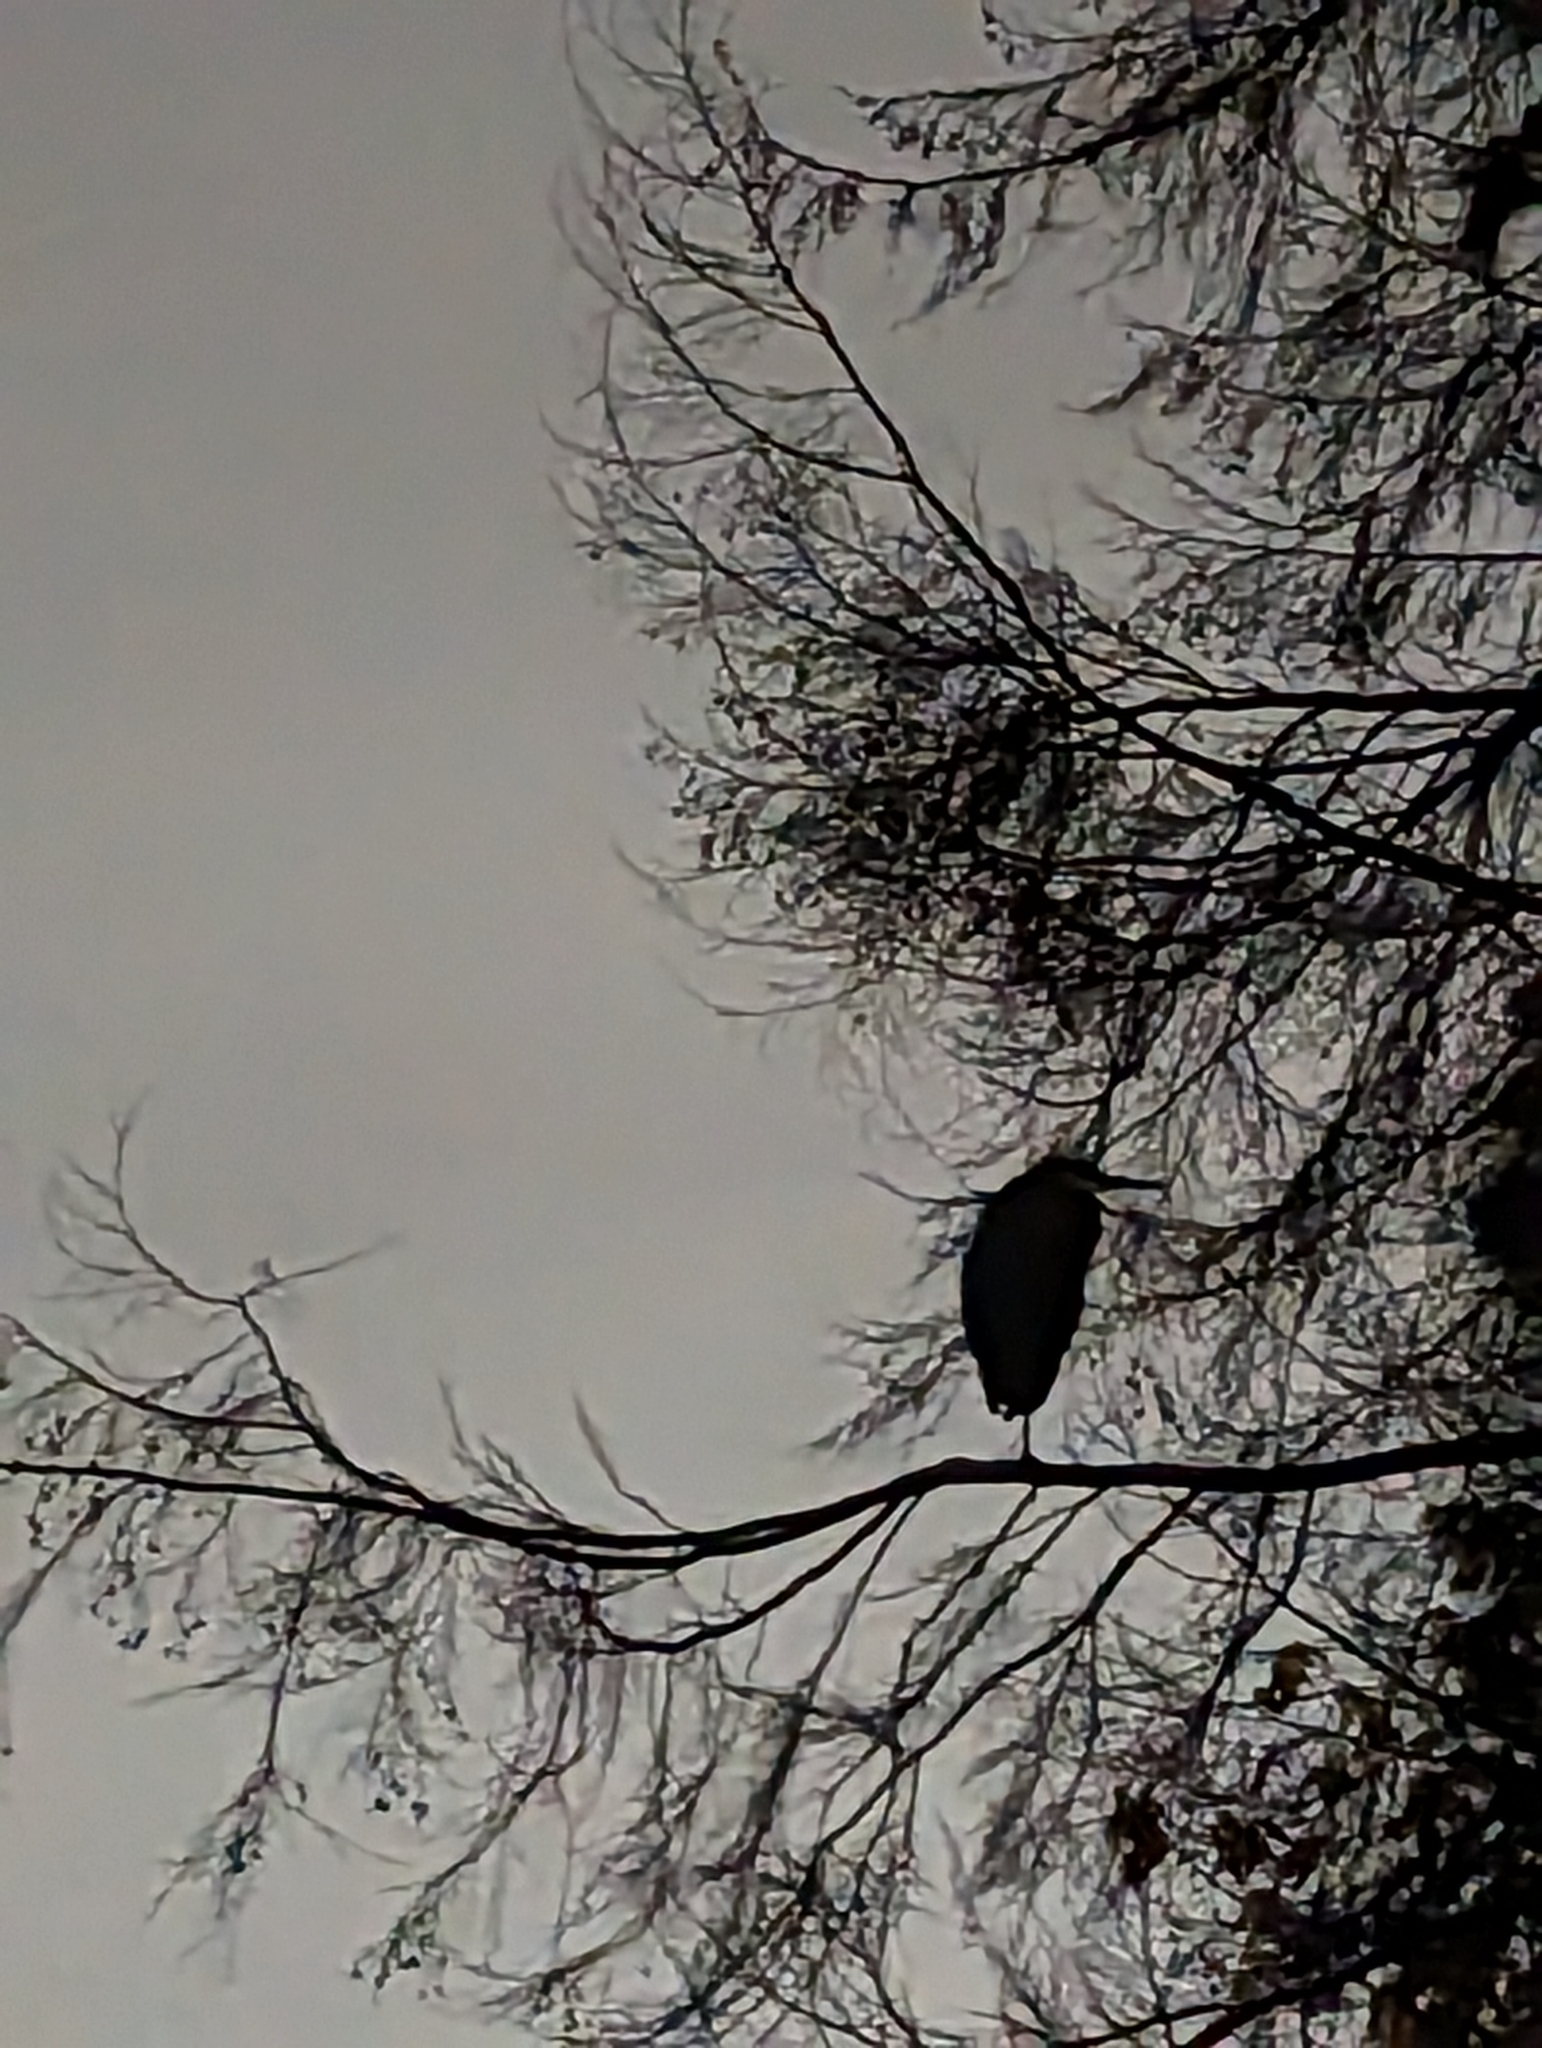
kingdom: Animalia
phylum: Chordata
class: Aves
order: Pelecaniformes
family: Ardeidae
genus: Ardea
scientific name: Ardea herodias
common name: Great blue heron
